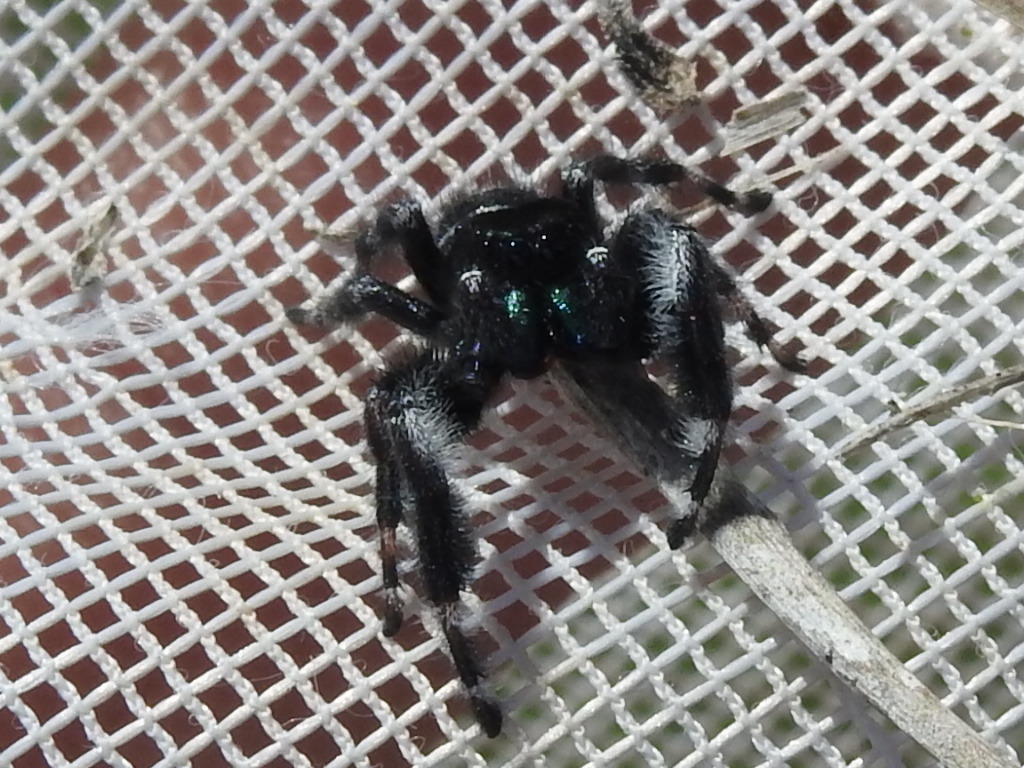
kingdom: Animalia
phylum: Arthropoda
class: Arachnida
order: Araneae
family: Salticidae
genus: Phidippus
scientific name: Phidippus audax
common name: Bold jumper
